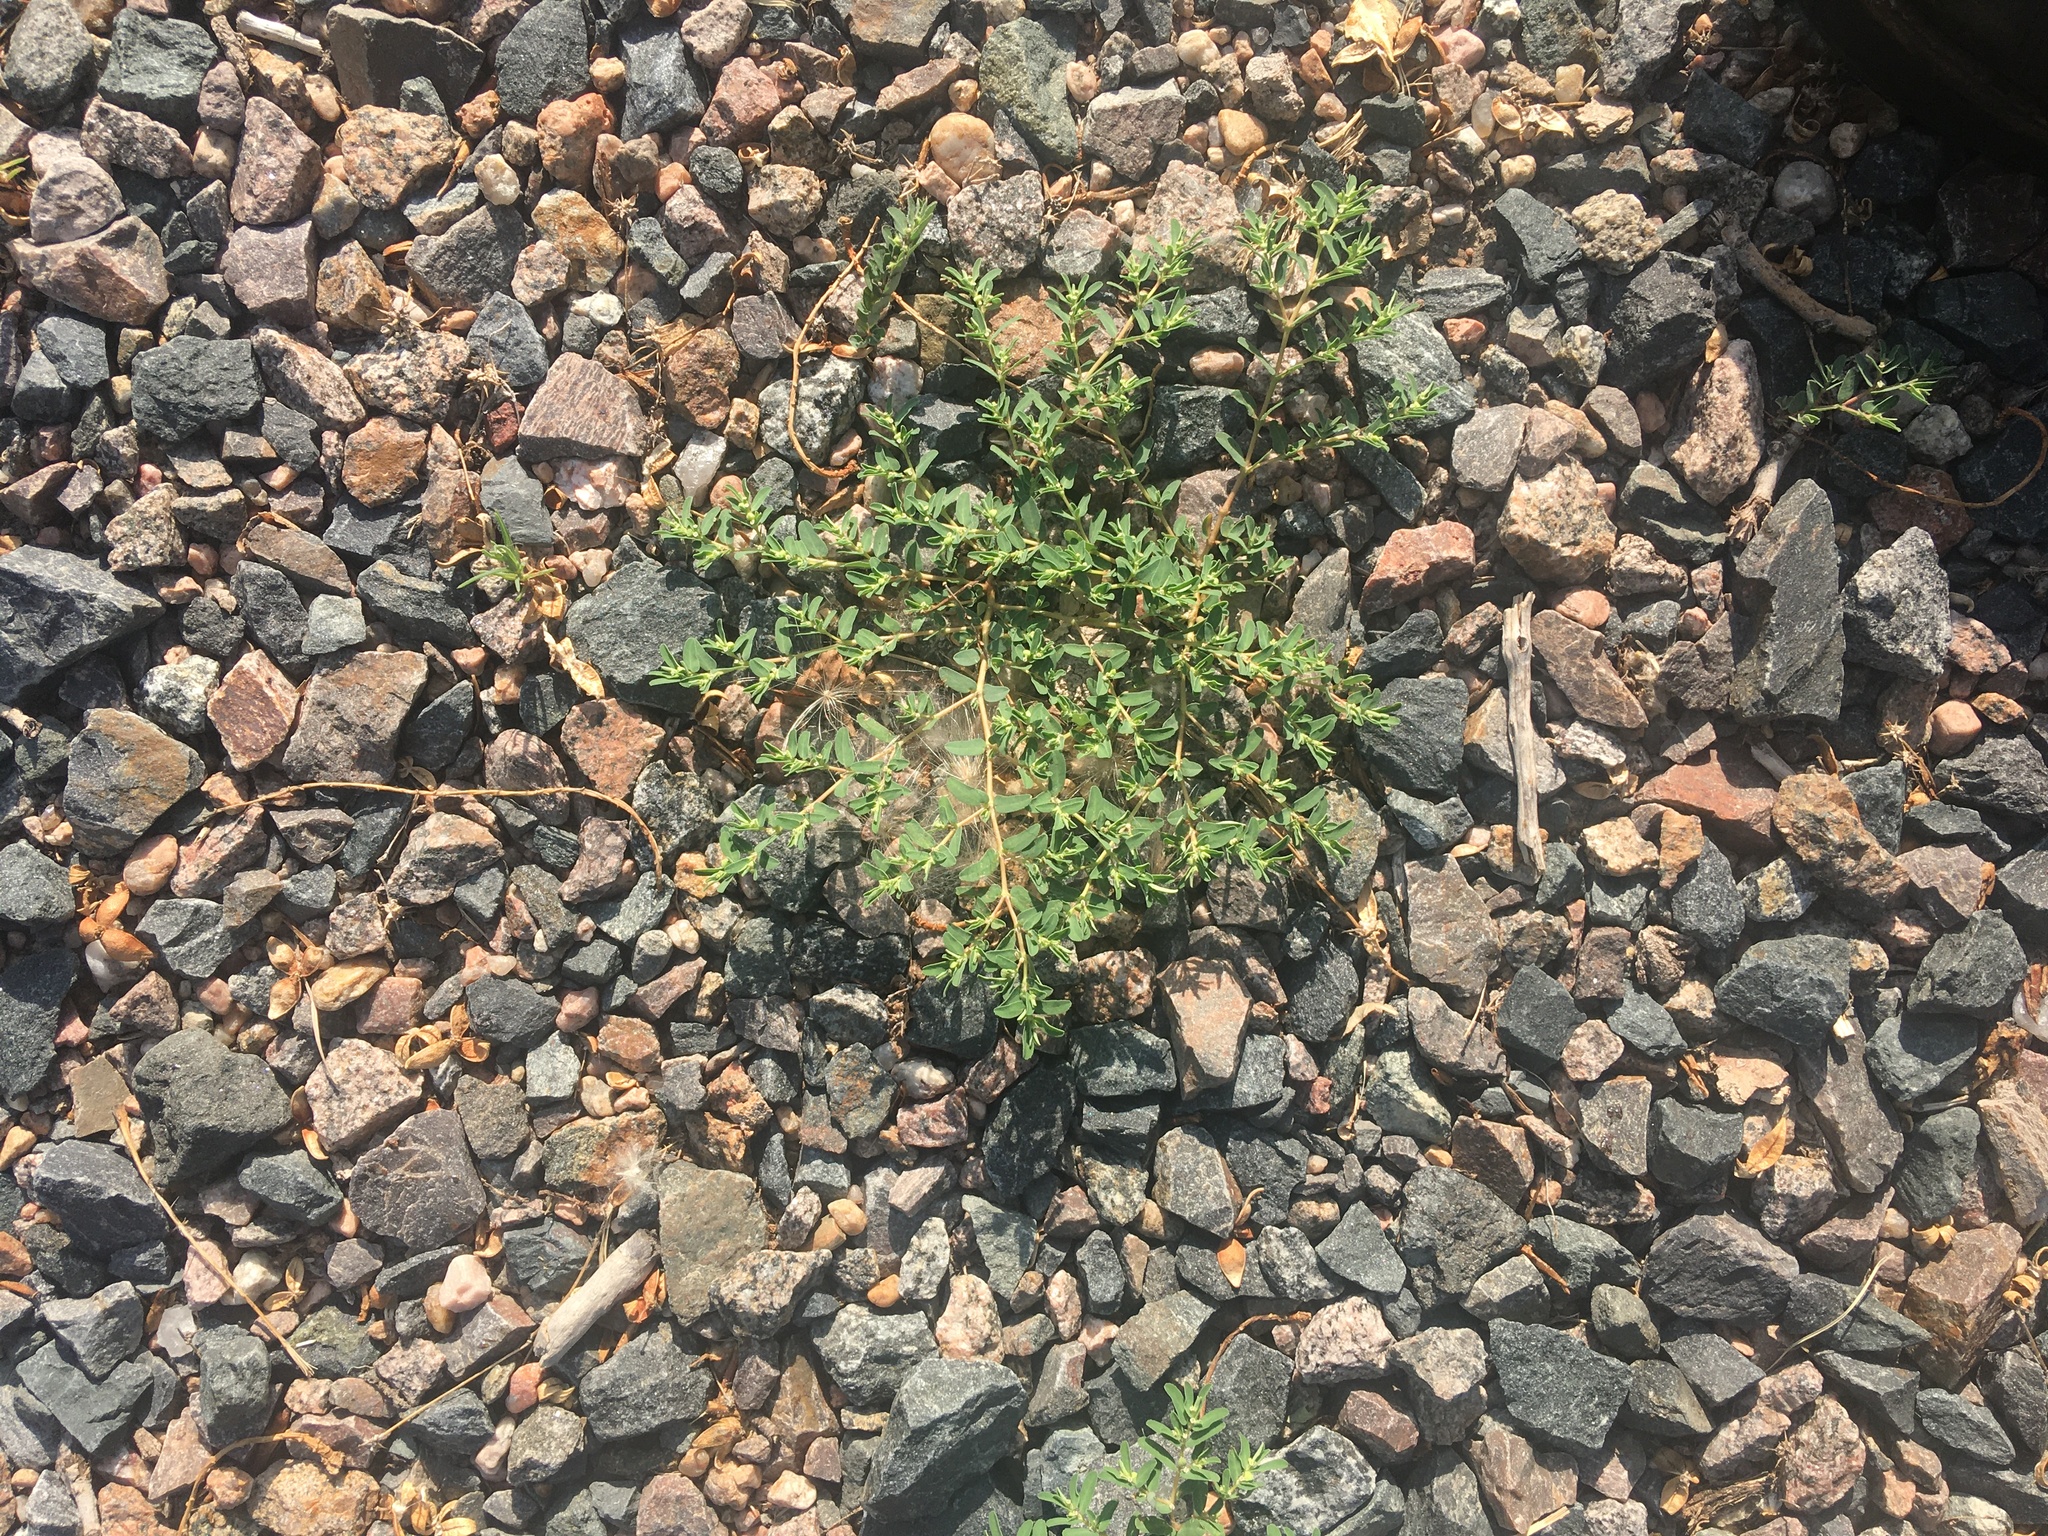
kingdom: Plantae
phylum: Tracheophyta
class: Magnoliopsida
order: Malpighiales
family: Euphorbiaceae
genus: Euphorbia
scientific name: Euphorbia glyptosperma
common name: Corrugate-seeded spurge
